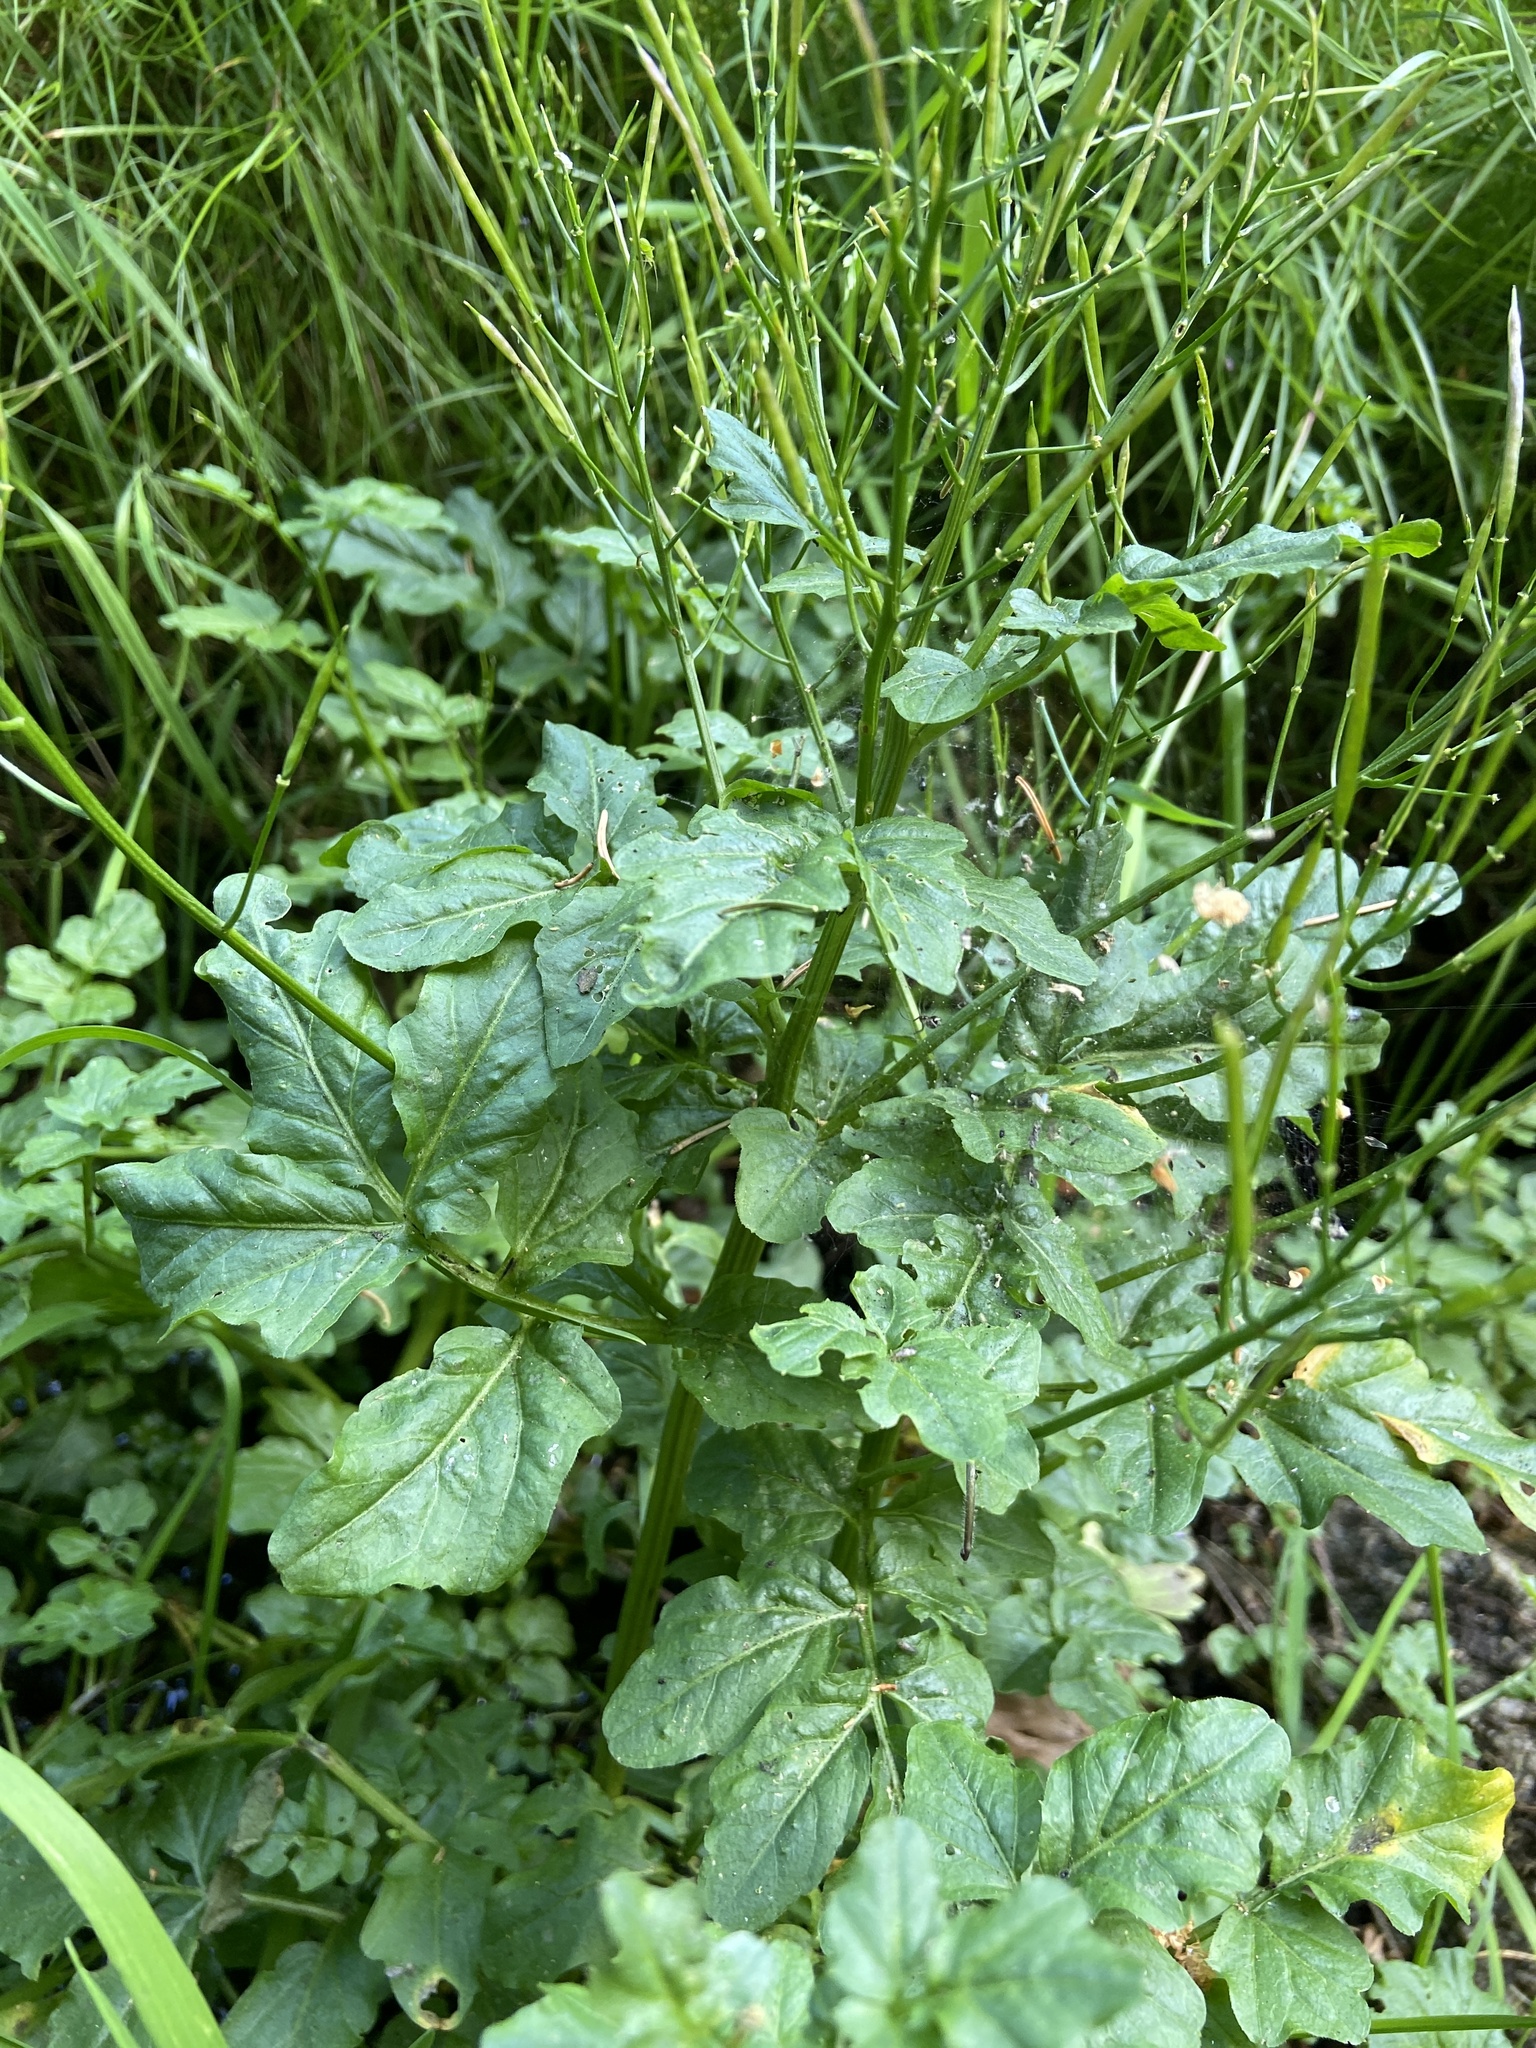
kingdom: Plantae
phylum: Tracheophyta
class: Magnoliopsida
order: Brassicales
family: Brassicaceae
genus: Cardamine
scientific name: Cardamine amara
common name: Large bitter-cress
